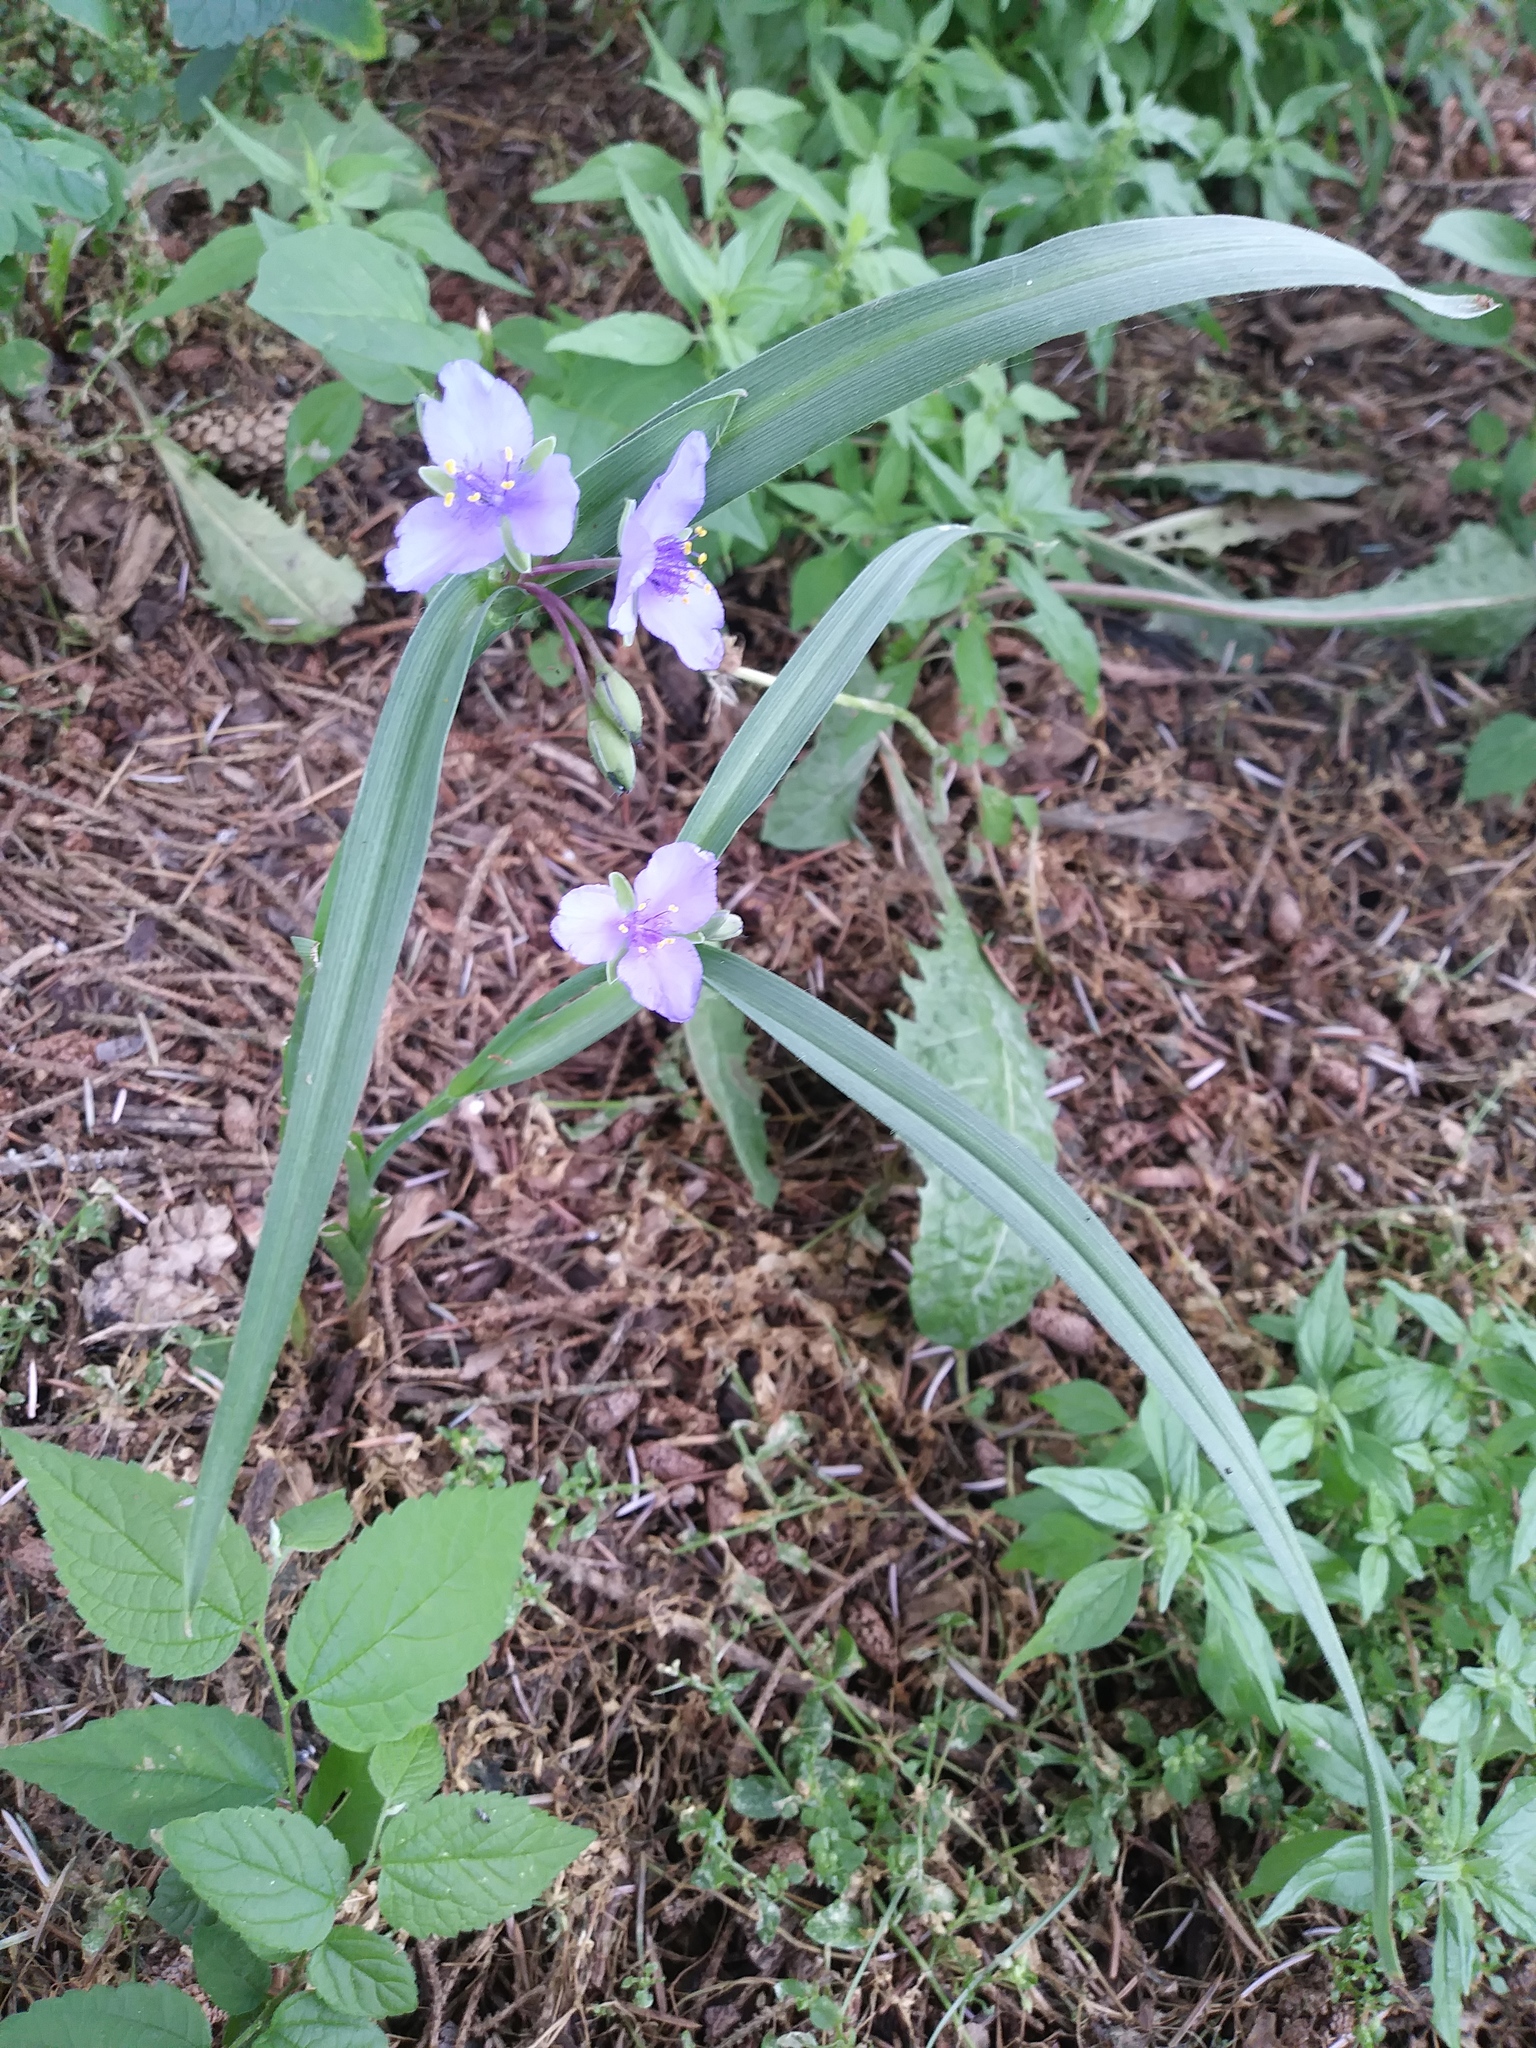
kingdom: Plantae
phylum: Tracheophyta
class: Liliopsida
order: Commelinales
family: Commelinaceae
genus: Tradescantia
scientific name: Tradescantia ohiensis
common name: Ohio spiderwort
